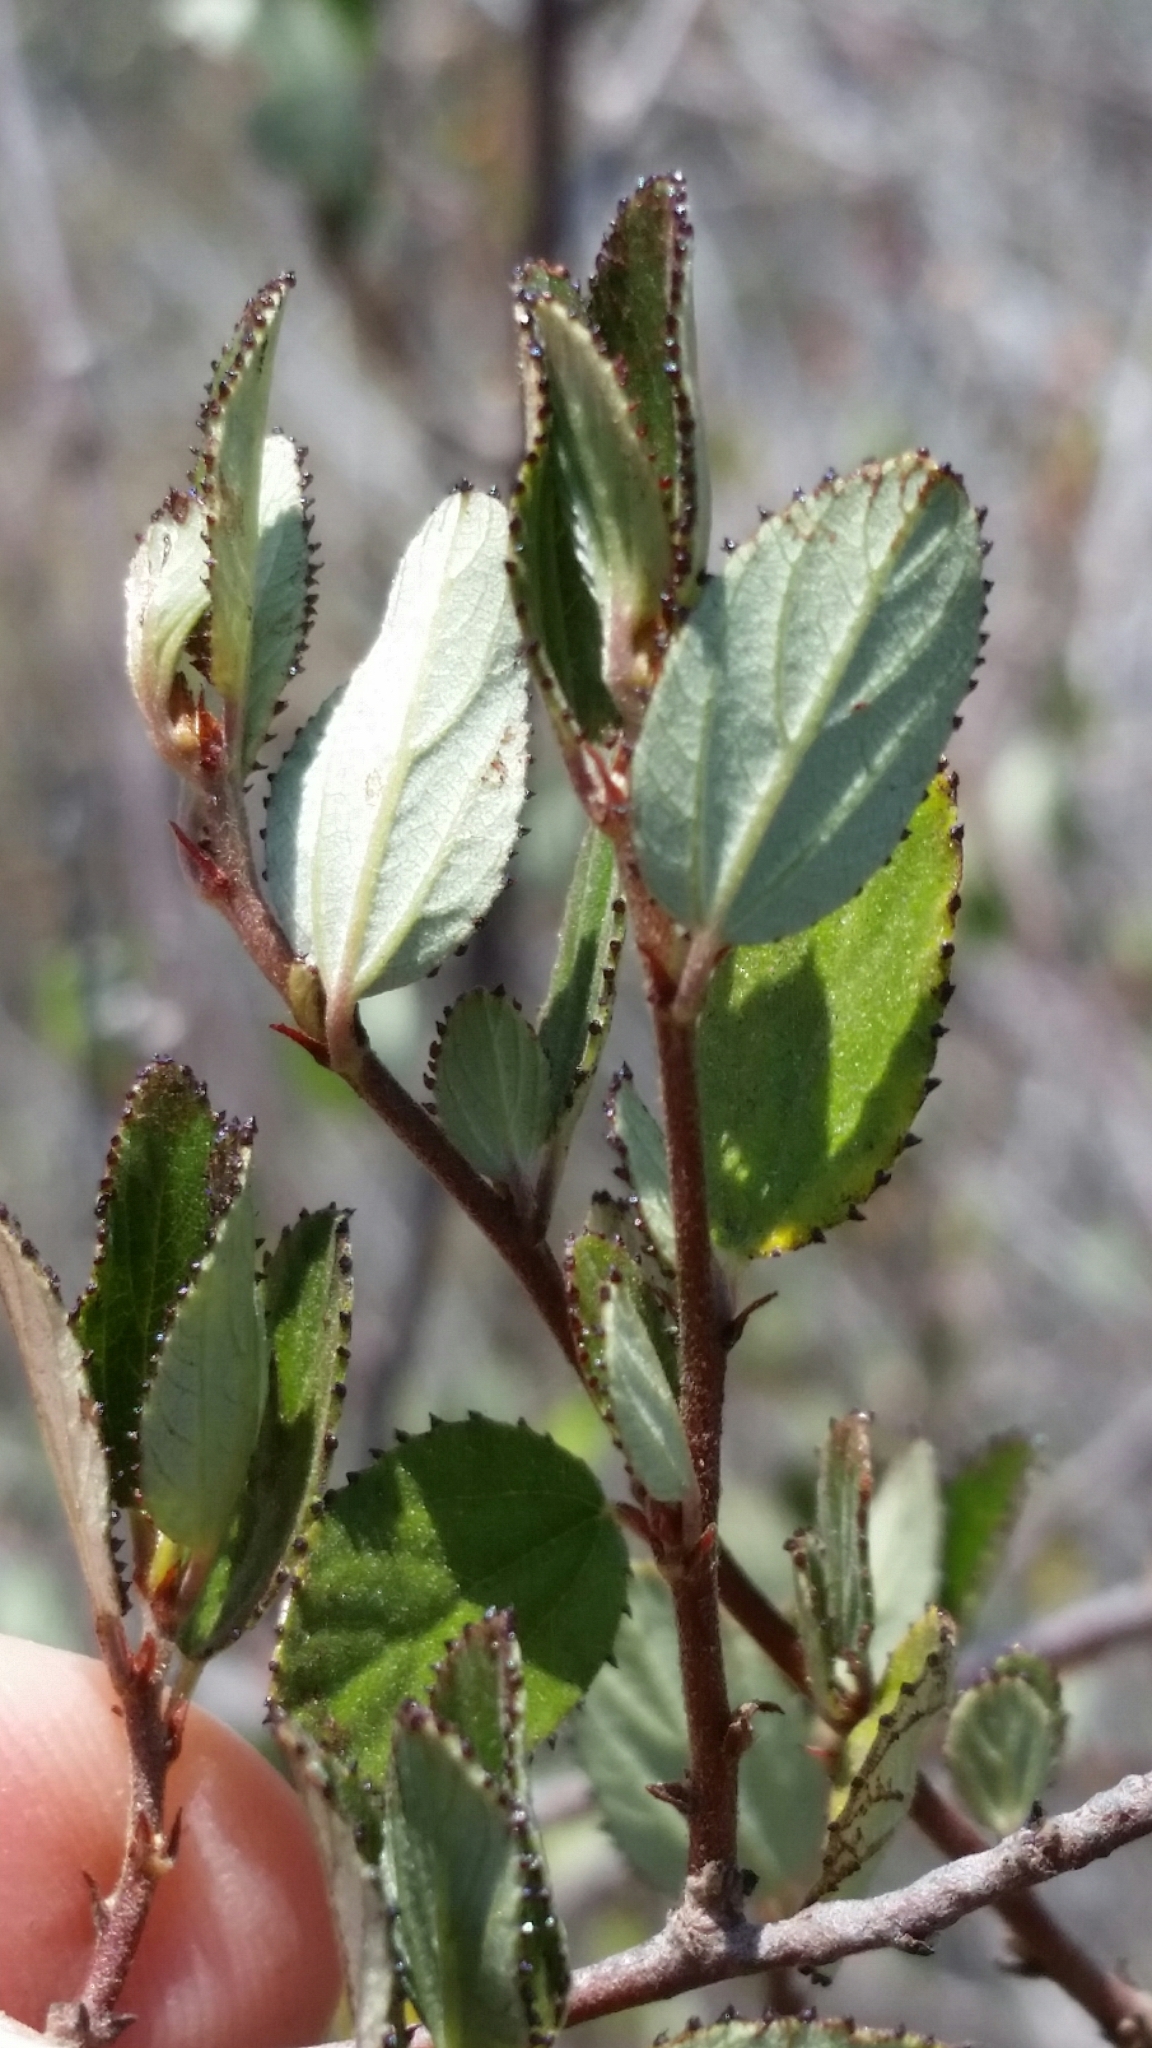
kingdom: Plantae
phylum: Tracheophyta
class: Magnoliopsida
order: Rosales
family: Rhamnaceae
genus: Ceanothus
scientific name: Ceanothus tomentosus
